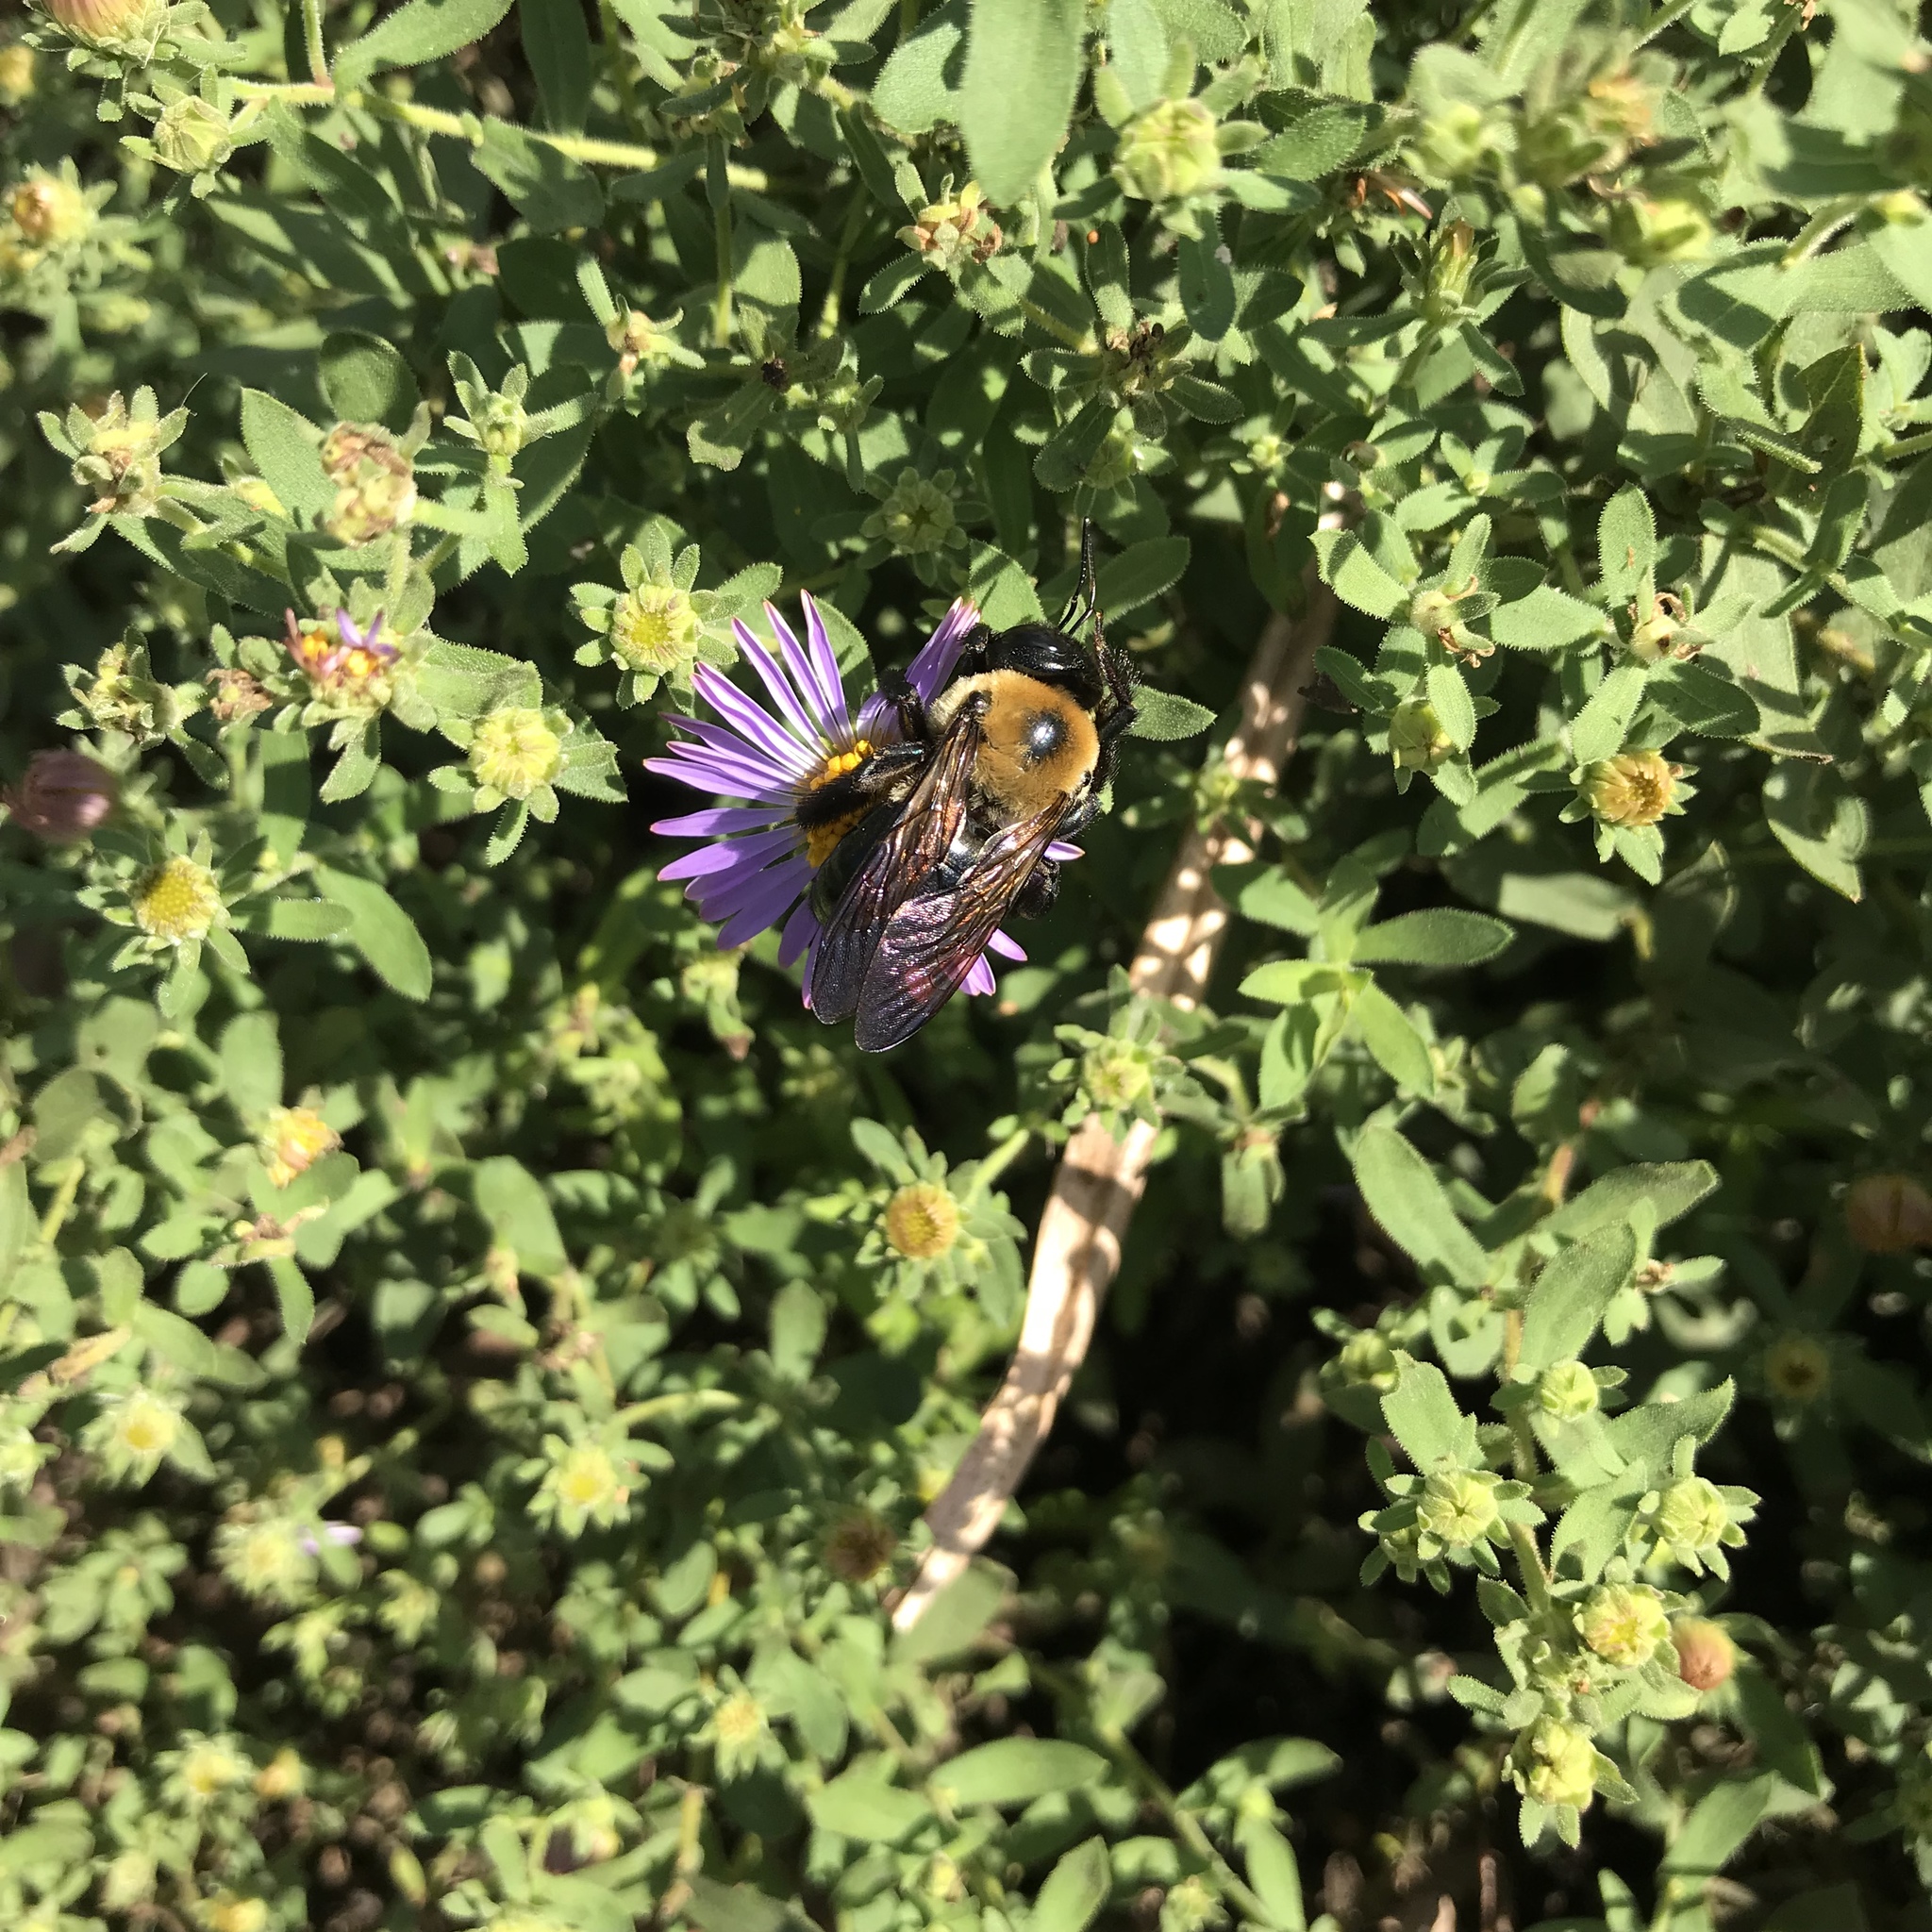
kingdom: Animalia
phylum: Arthropoda
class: Insecta
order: Hymenoptera
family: Apidae
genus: Xylocopa
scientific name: Xylocopa virginica
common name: Carpenter bee
